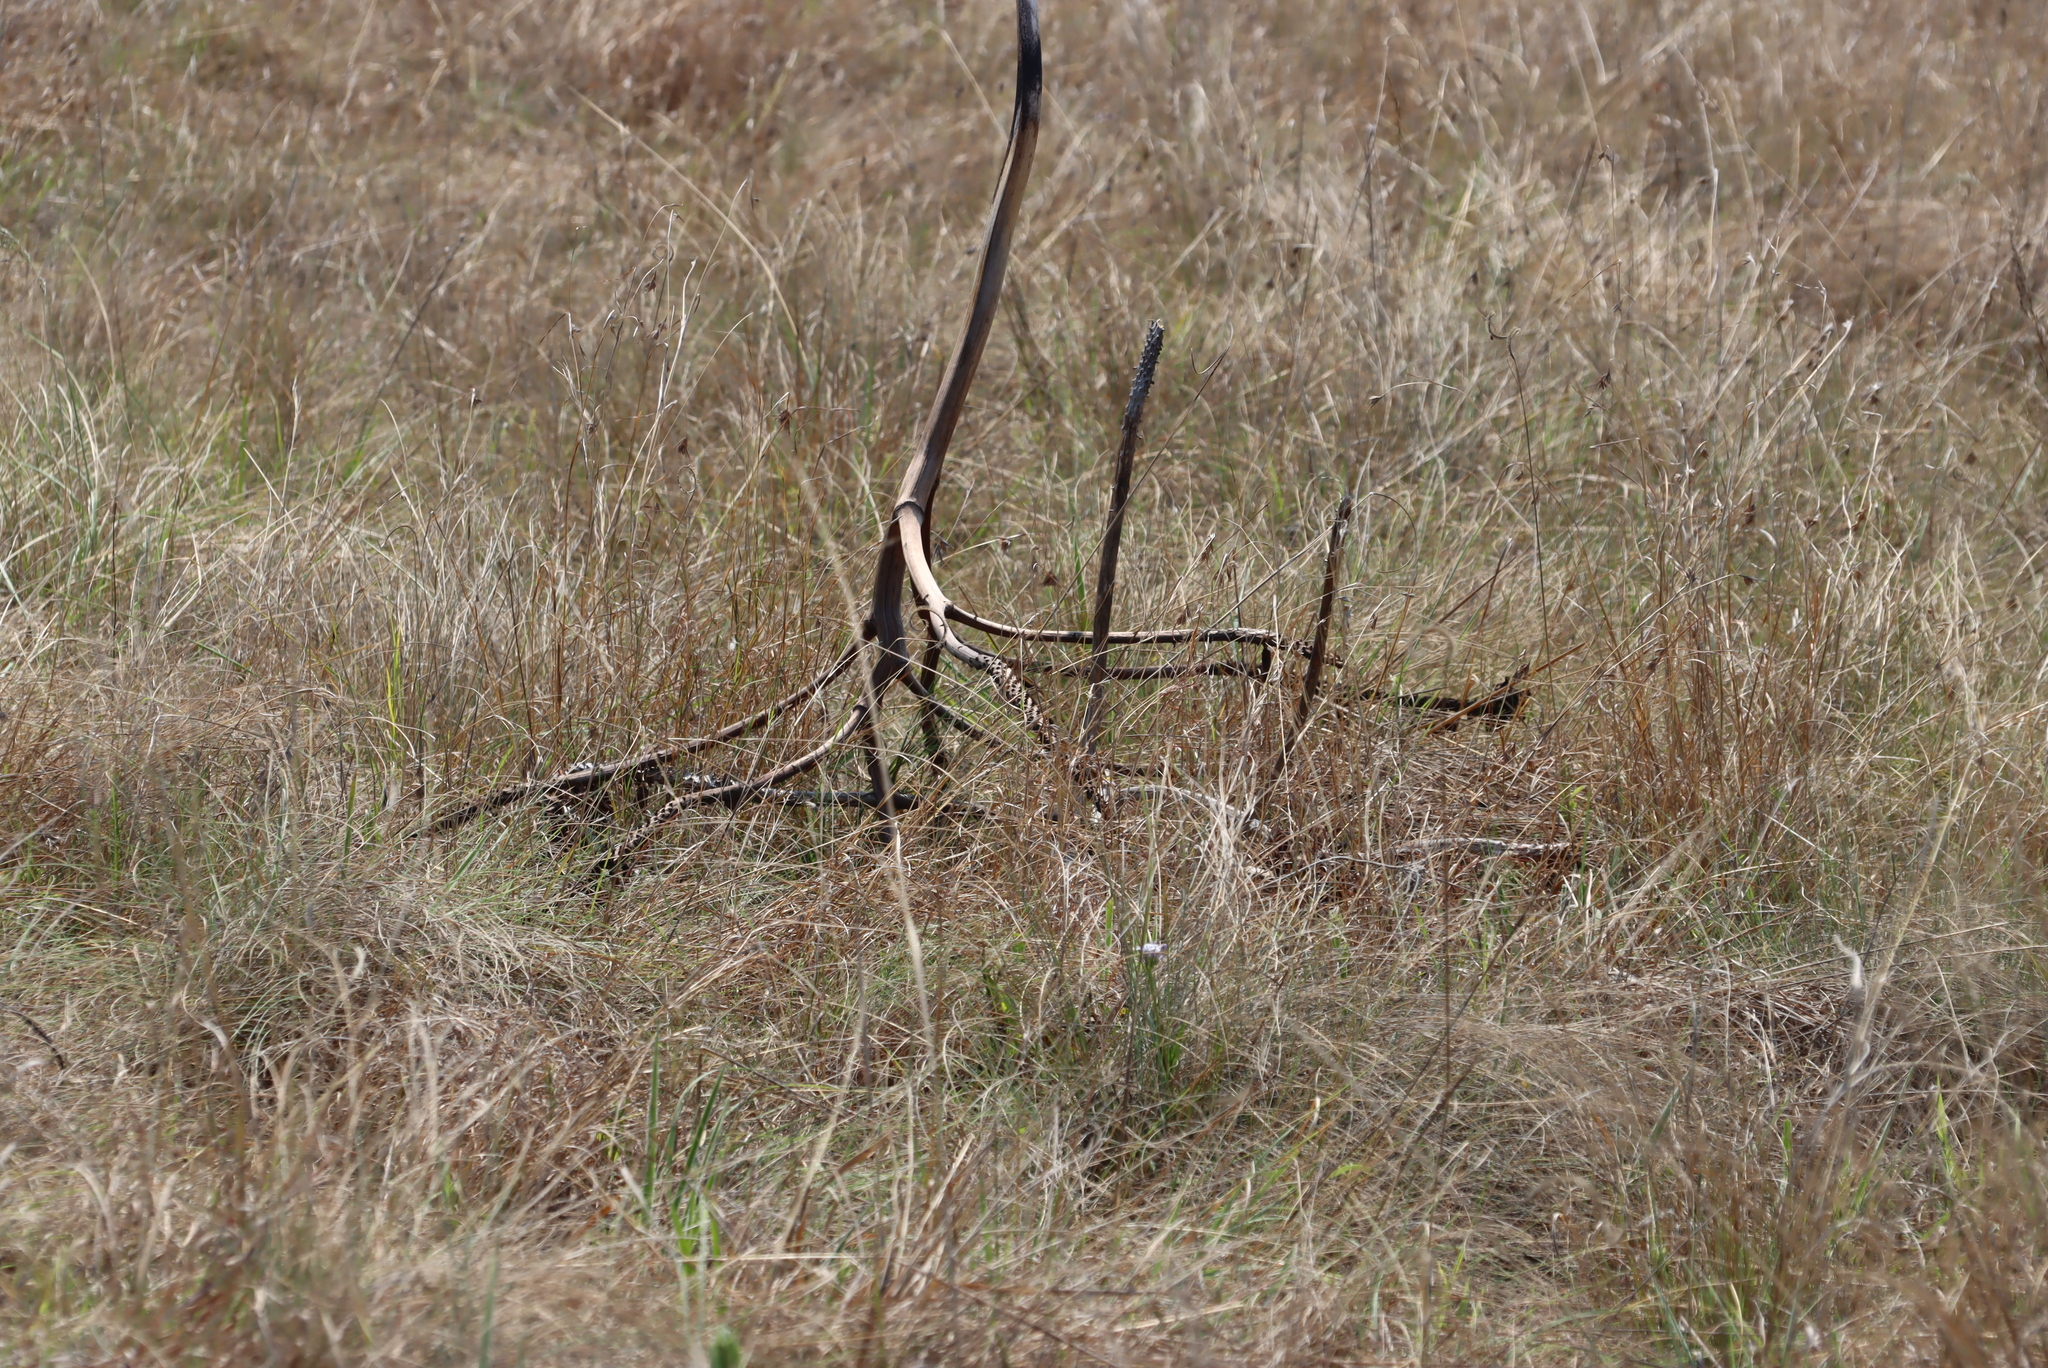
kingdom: Plantae
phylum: Tracheophyta
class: Liliopsida
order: Asparagales
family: Asphodelaceae
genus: Aloe
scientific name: Aloe marlothii
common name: Flat-flowered aloe
